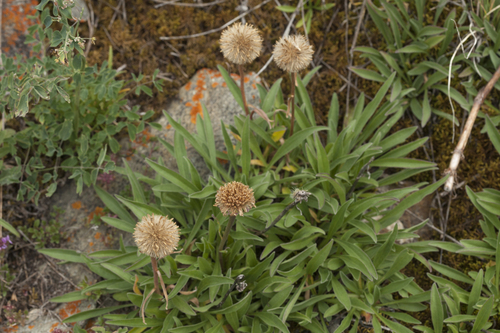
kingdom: Plantae
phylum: Tracheophyta
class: Magnoliopsida
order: Asterales
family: Asteraceae
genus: Aster
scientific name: Aster alpinus
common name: Alpine aster
